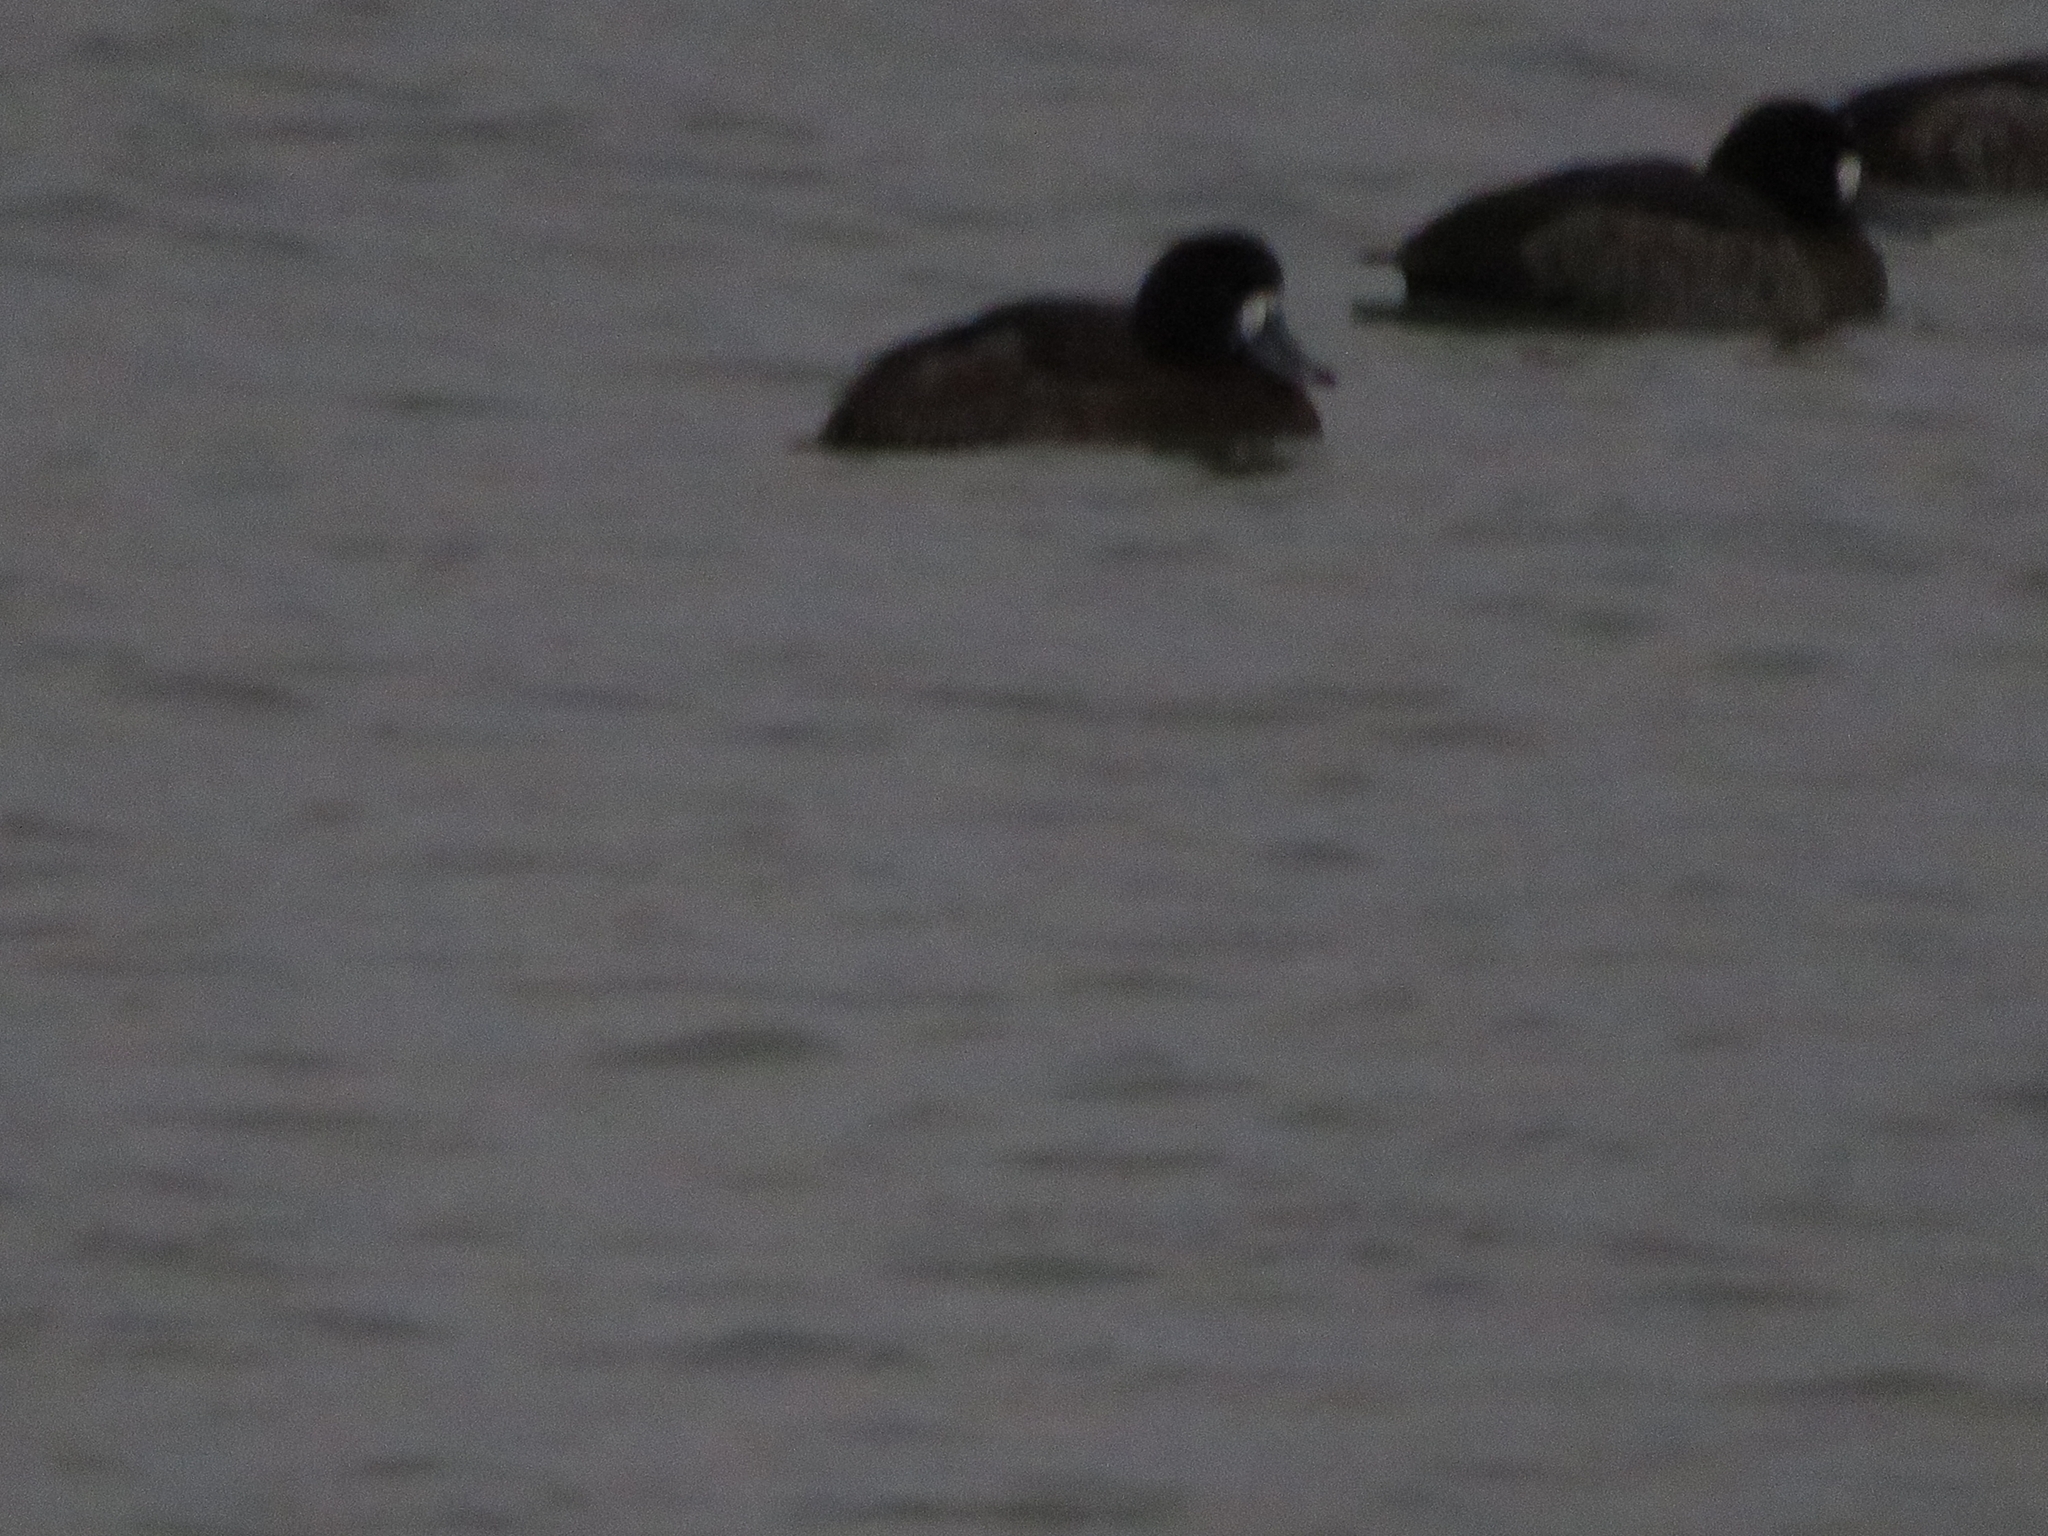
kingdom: Animalia
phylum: Chordata
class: Aves
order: Anseriformes
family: Anatidae
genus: Aythya
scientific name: Aythya marila
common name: Greater scaup
